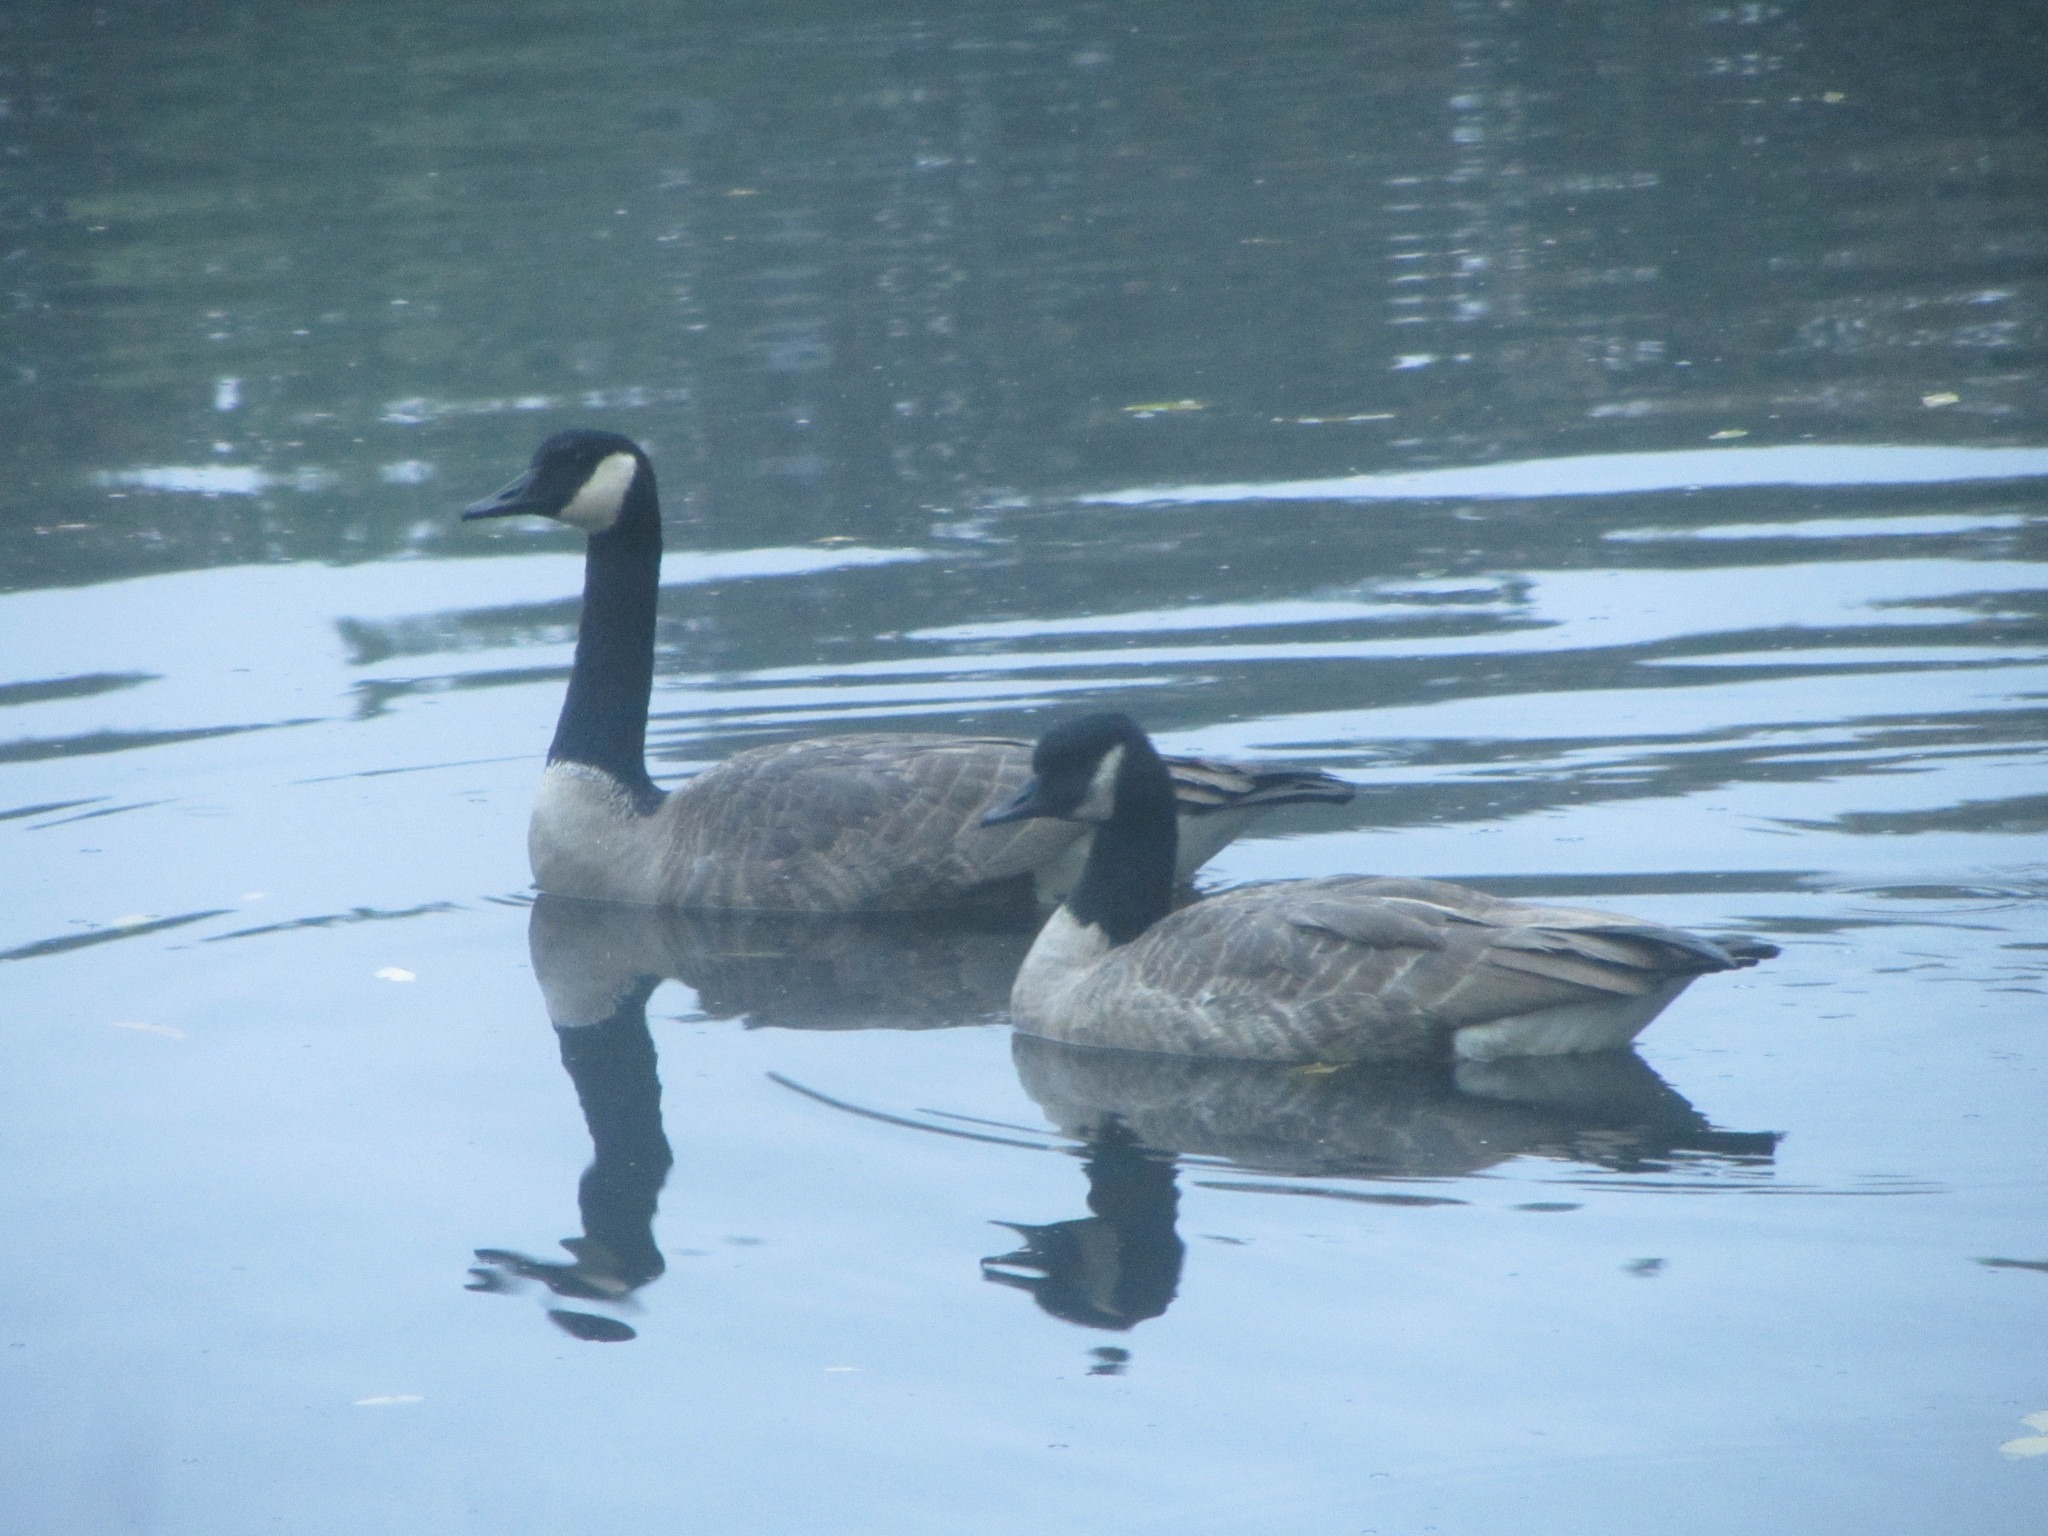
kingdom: Animalia
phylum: Chordata
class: Aves
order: Anseriformes
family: Anatidae
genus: Branta
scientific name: Branta canadensis
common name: Canada goose
